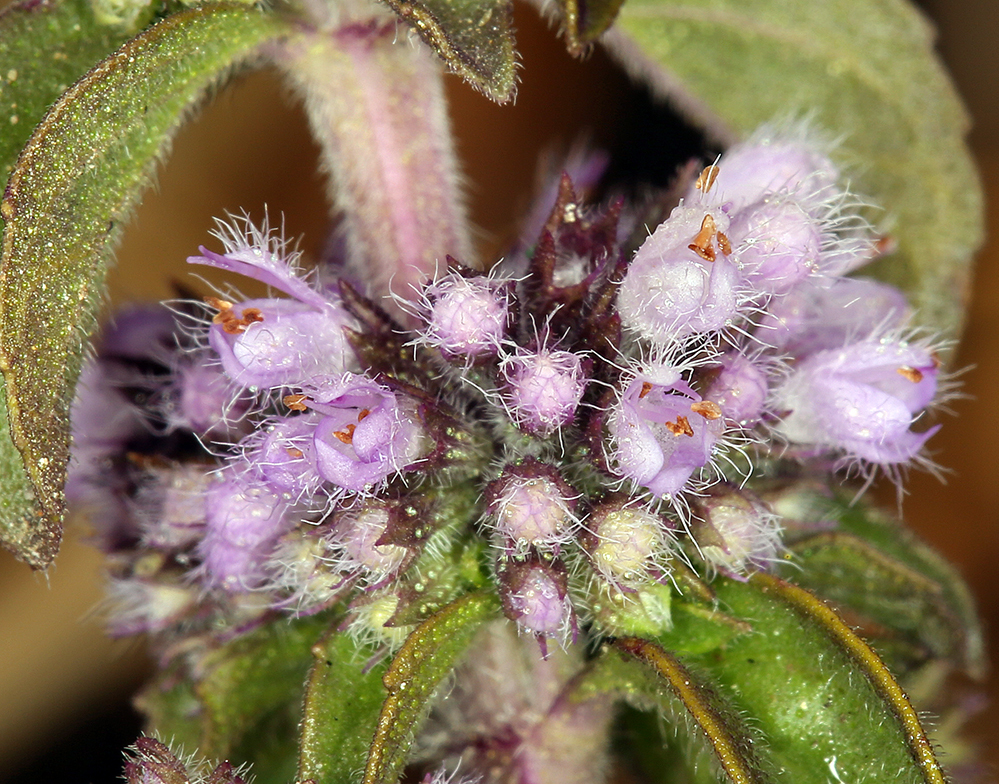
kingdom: Plantae
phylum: Tracheophyta
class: Magnoliopsida
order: Lamiales
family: Lamiaceae
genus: Mentha
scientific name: Mentha pulegium
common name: Pennyroyal
